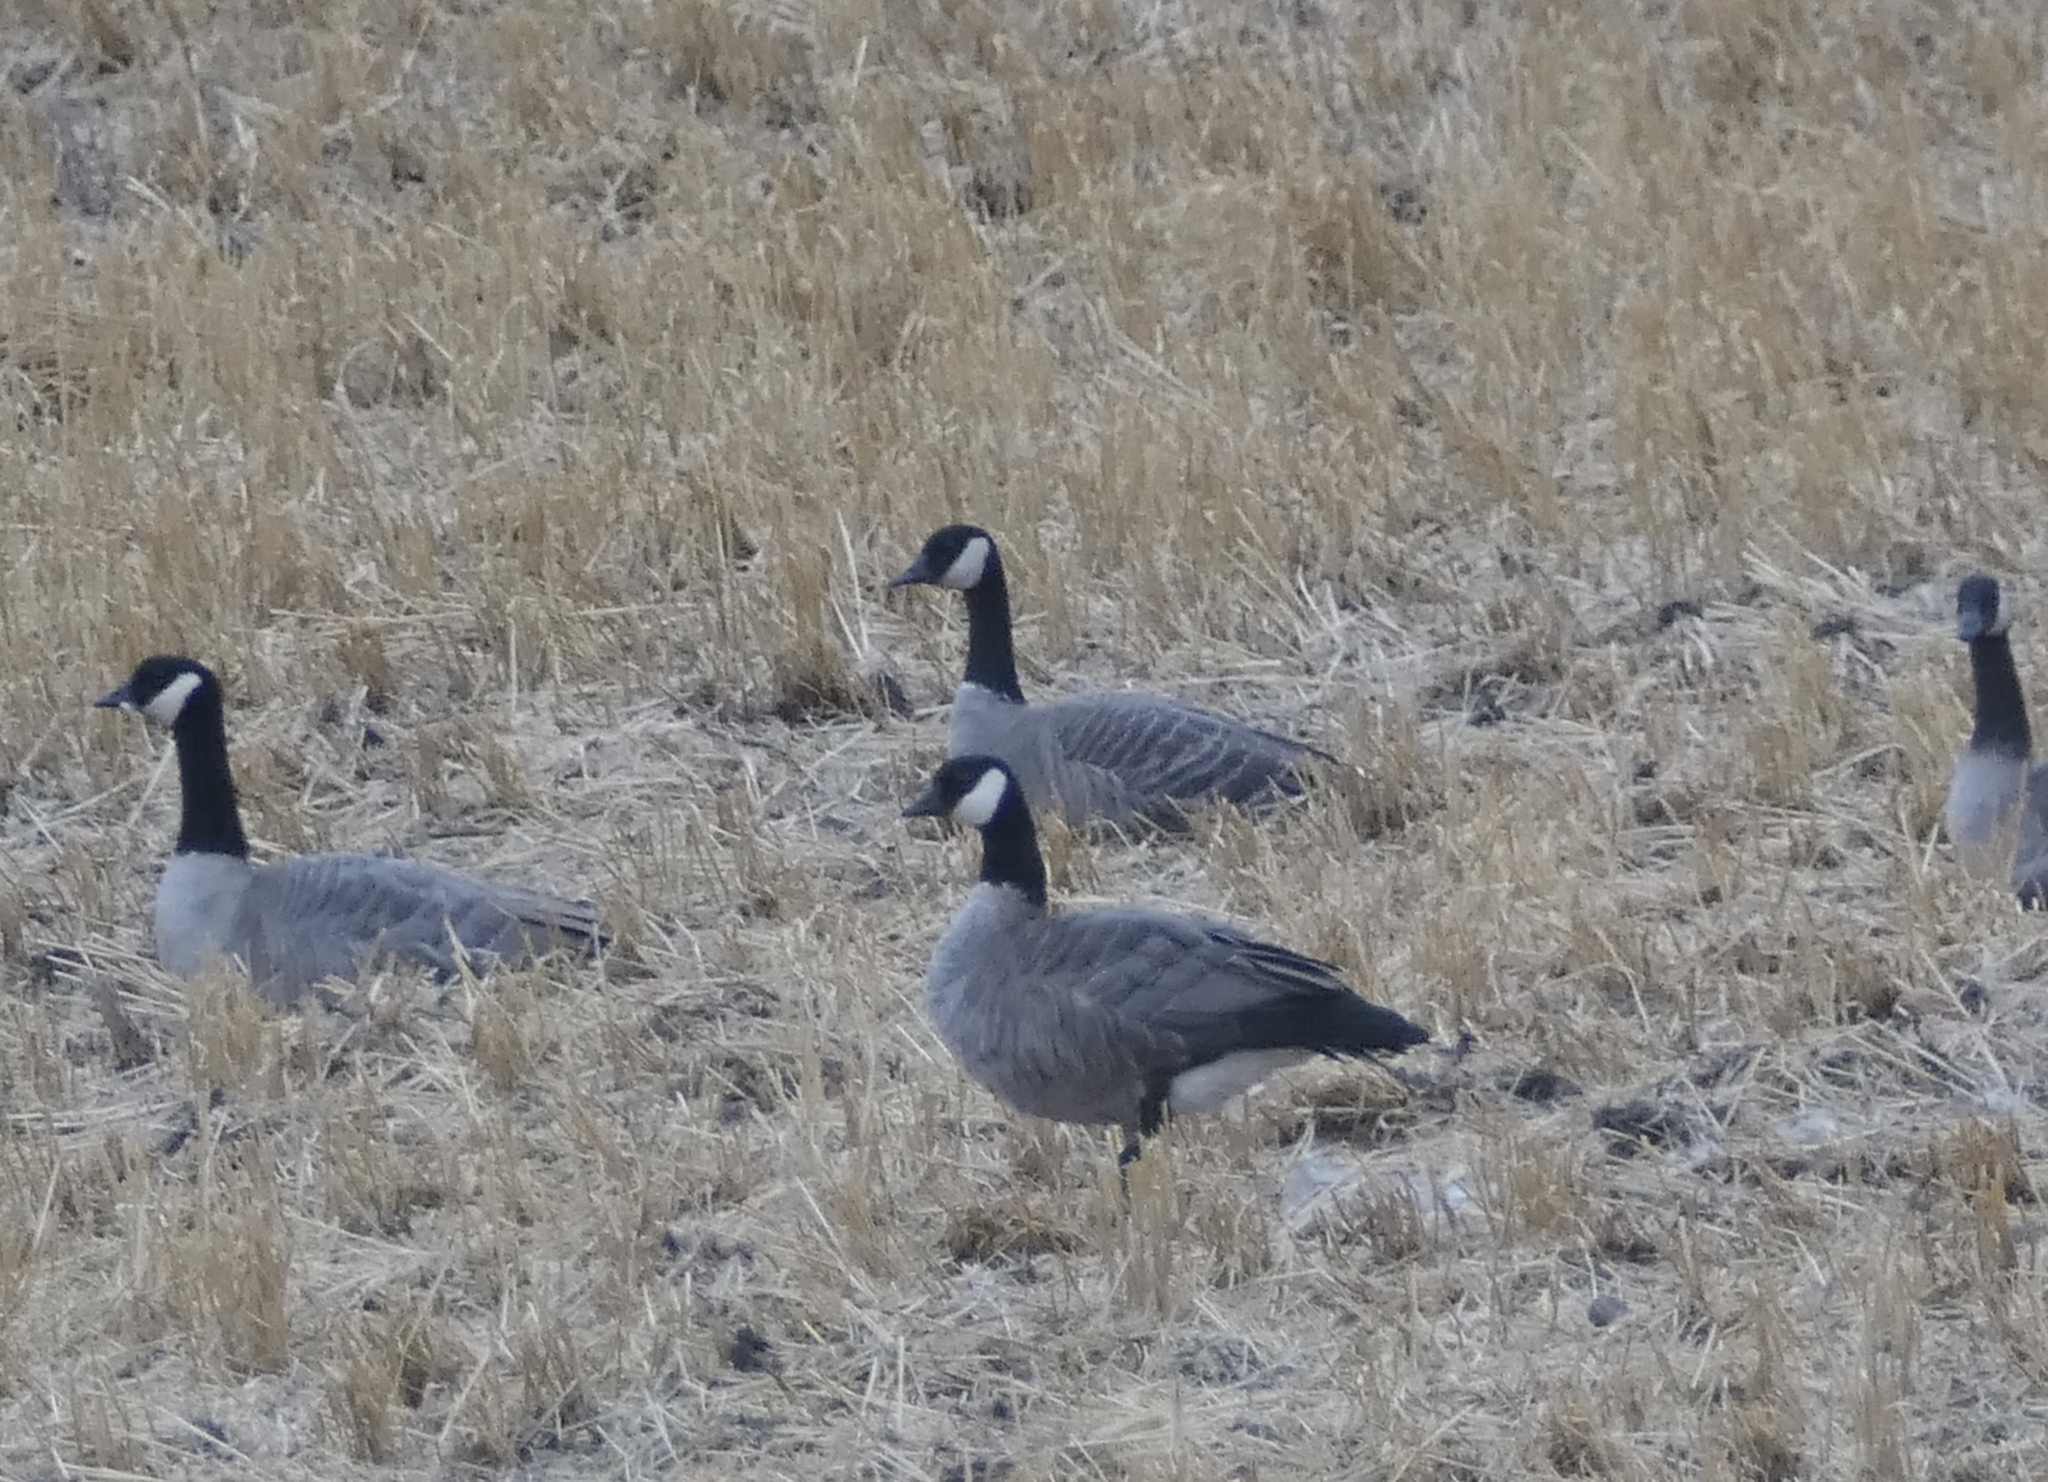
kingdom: Animalia
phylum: Chordata
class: Aves
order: Anseriformes
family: Anatidae
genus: Branta
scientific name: Branta hutchinsii
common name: Cackling goose
